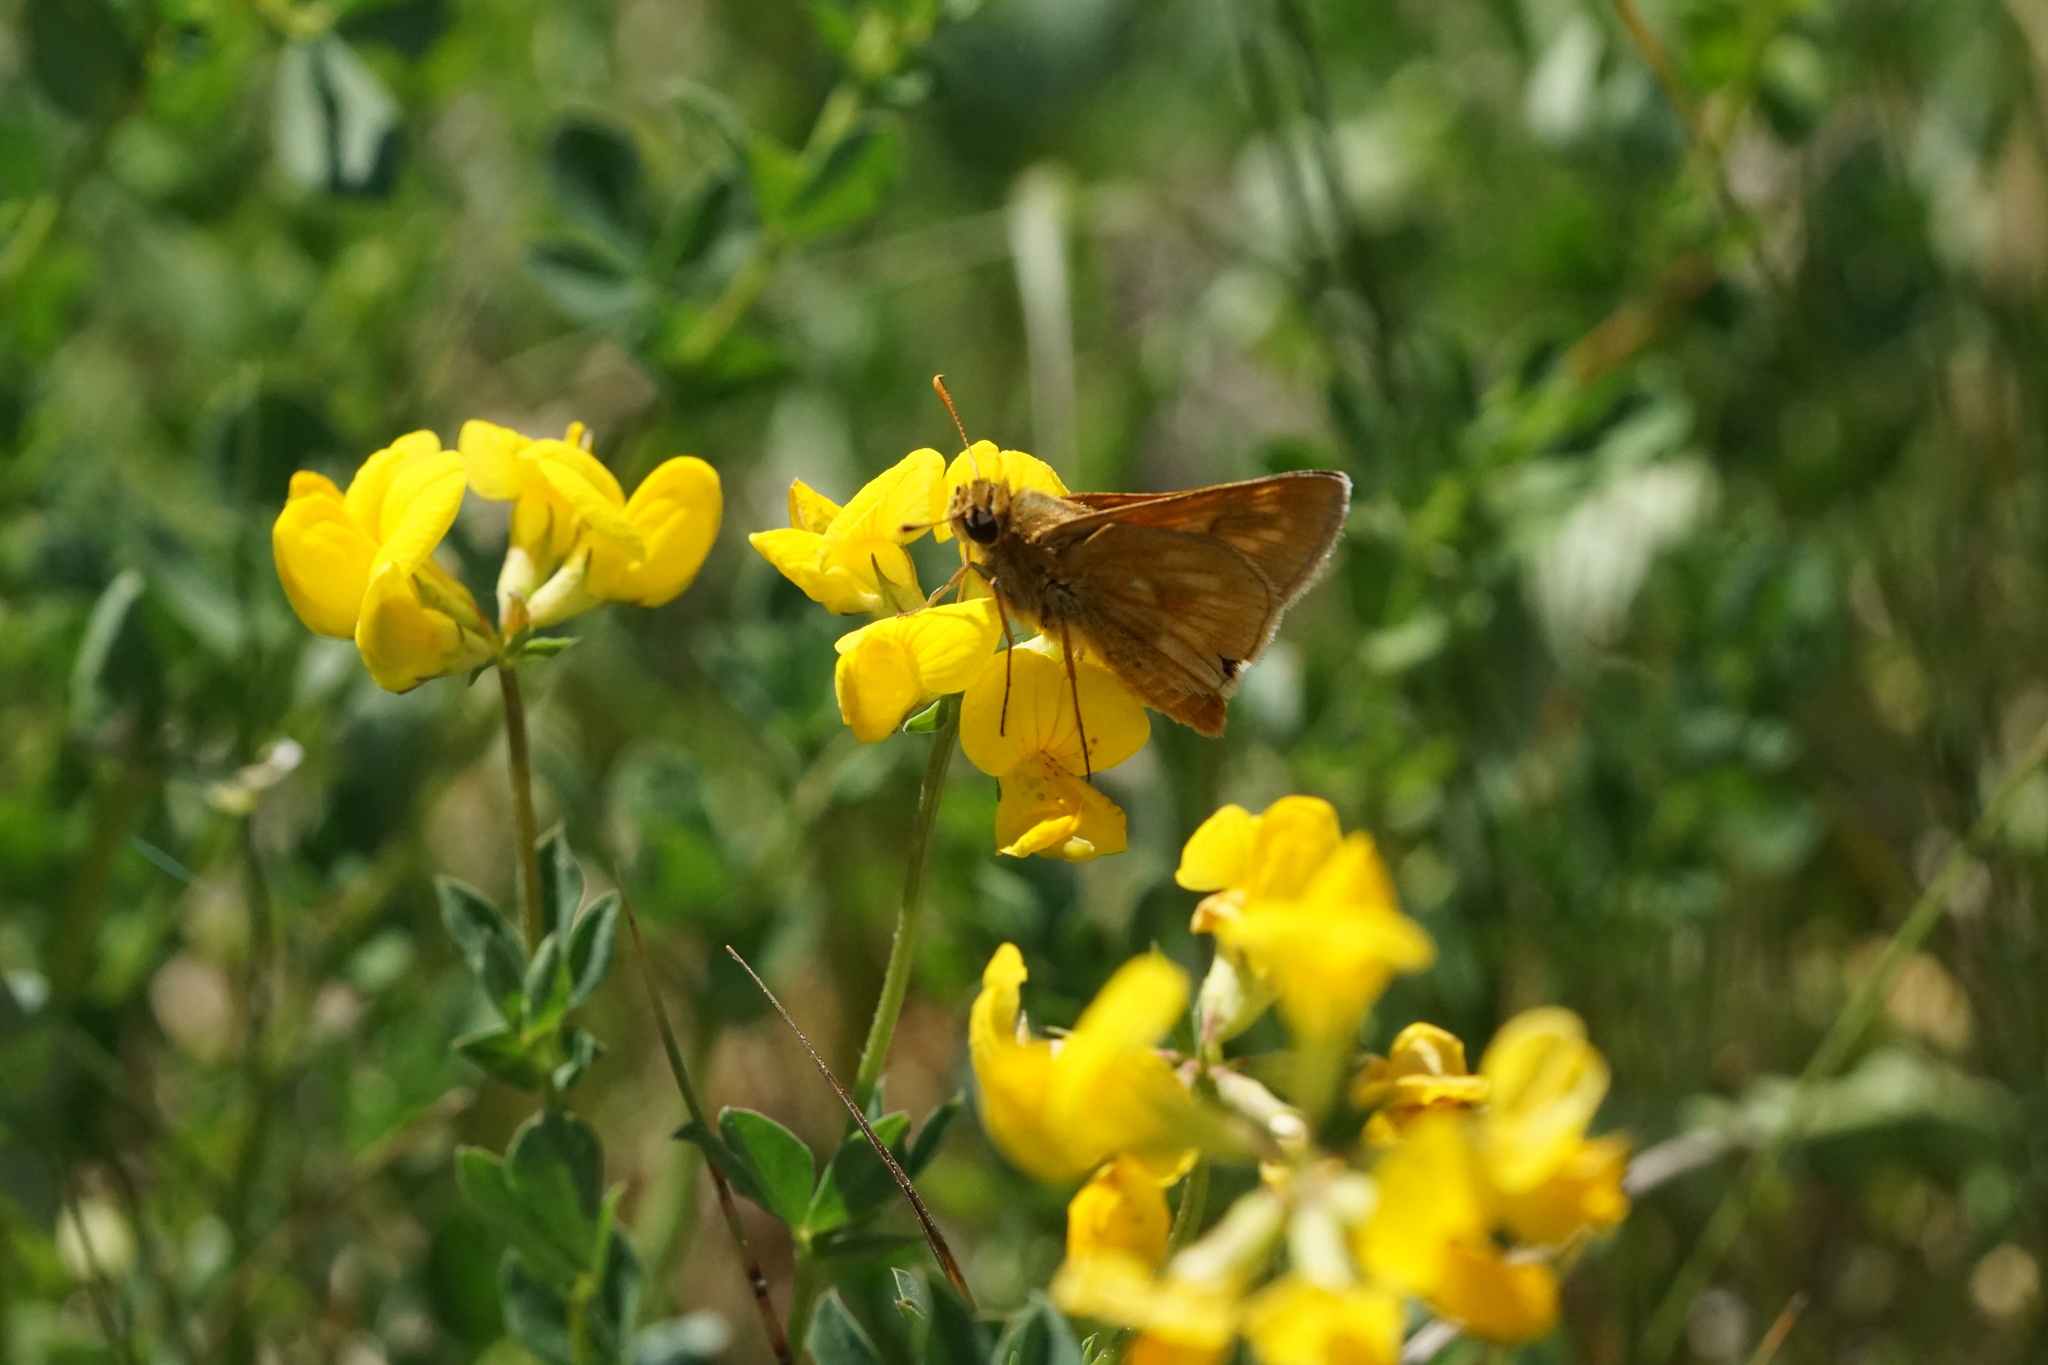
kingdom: Animalia
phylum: Arthropoda
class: Insecta
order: Lepidoptera
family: Hesperiidae
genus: Polites
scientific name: Polites mystic
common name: Long dash
